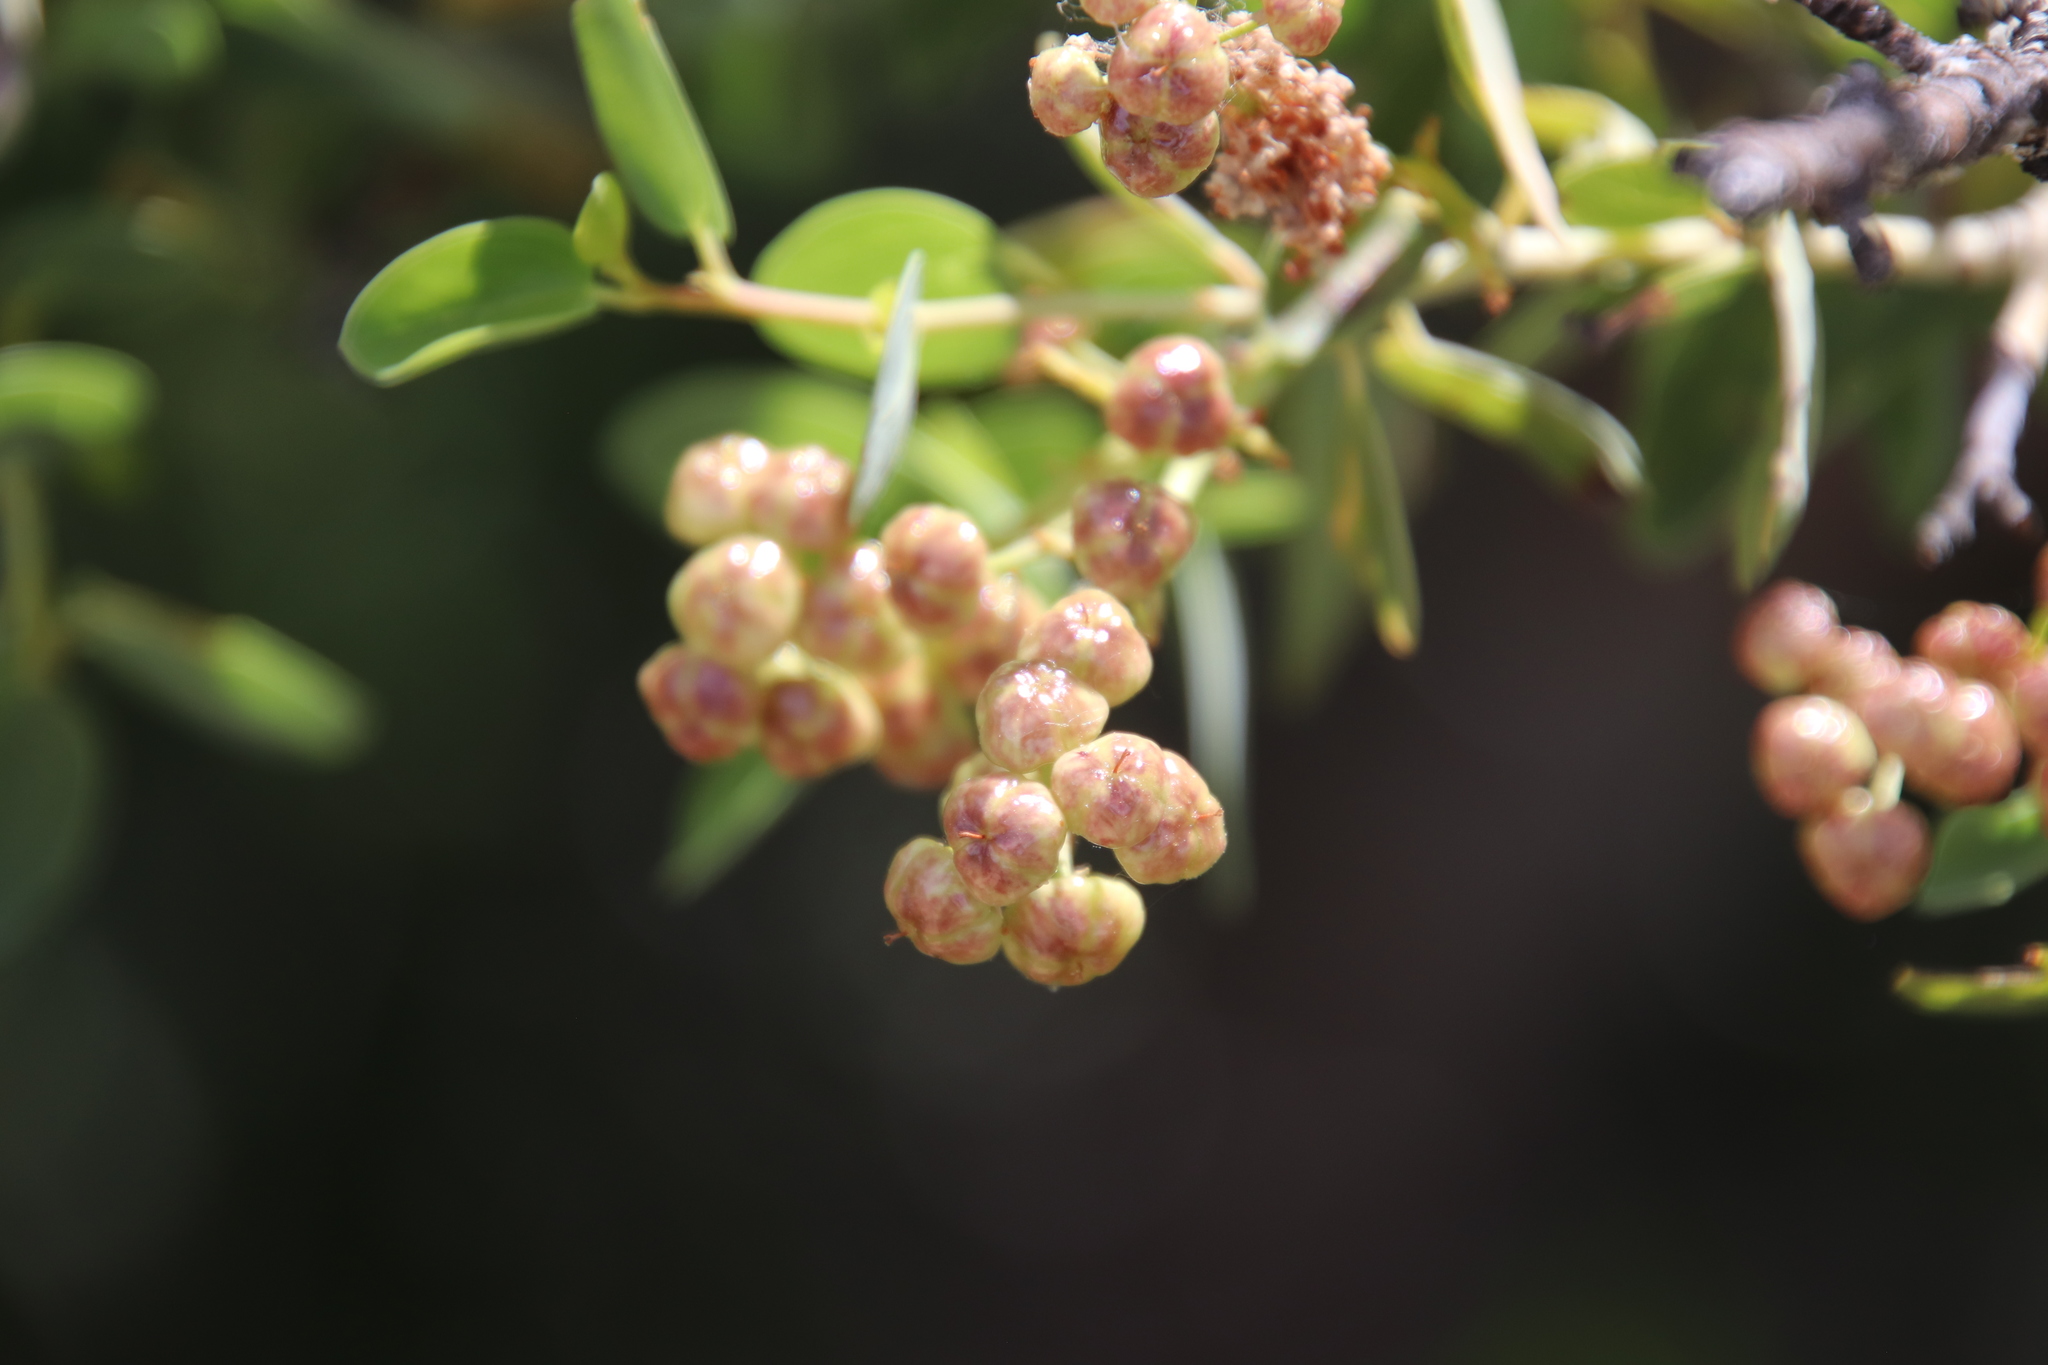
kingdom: Plantae
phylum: Tracheophyta
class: Magnoliopsida
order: Rosales
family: Rhamnaceae
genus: Ceanothus
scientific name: Ceanothus leucodermis
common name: Chaparral whitethorn
